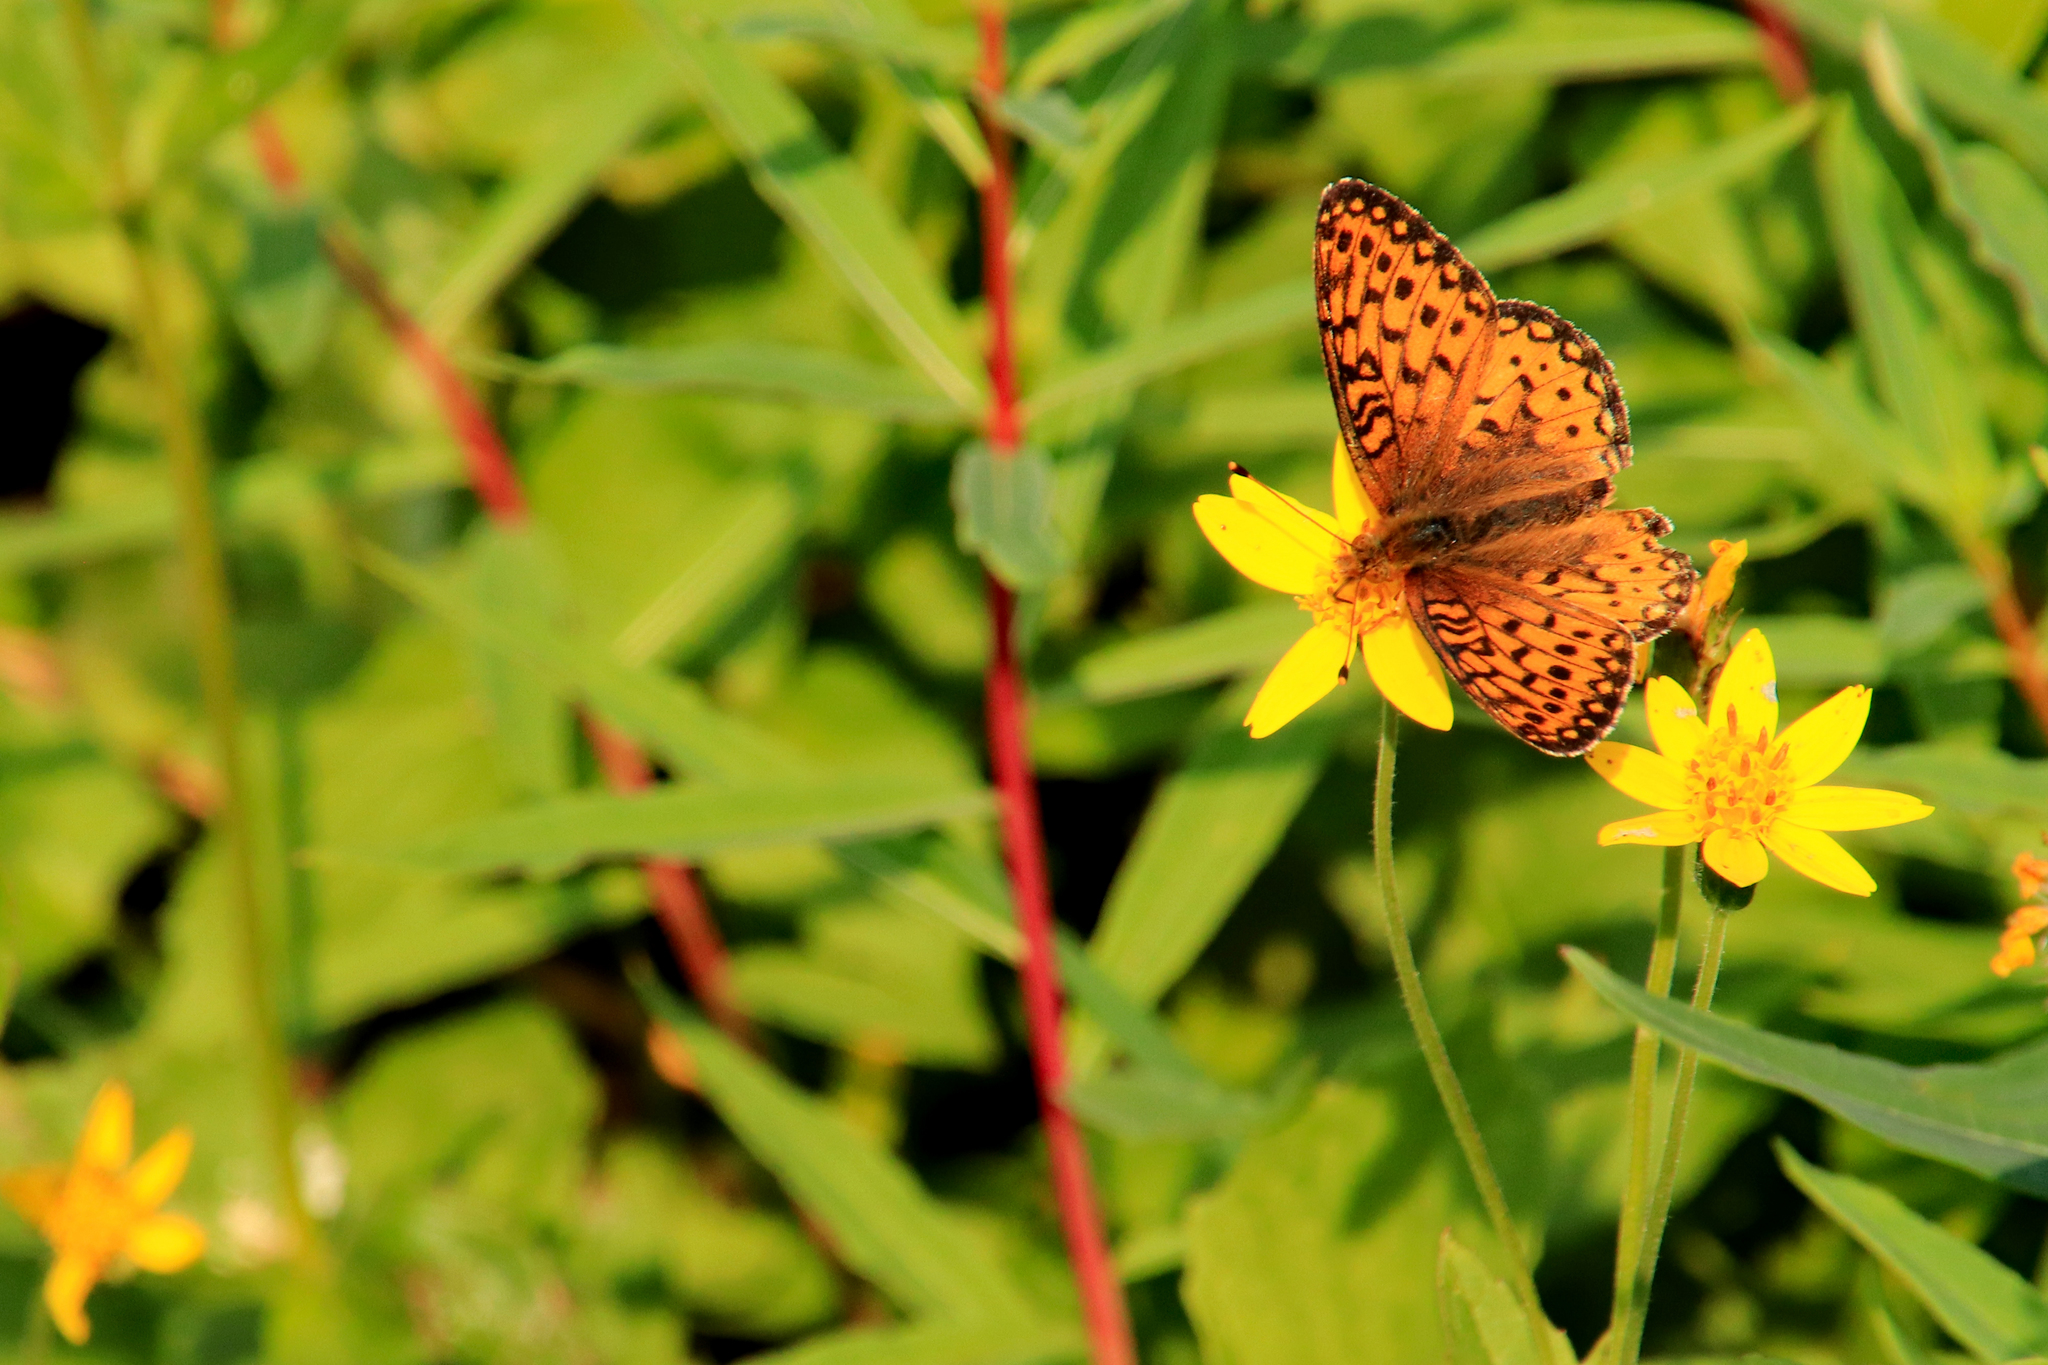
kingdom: Animalia
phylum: Arthropoda
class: Insecta
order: Lepidoptera
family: Nymphalidae
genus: Speyeria
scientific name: Speyeria mormonia
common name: Mormon fritillary
